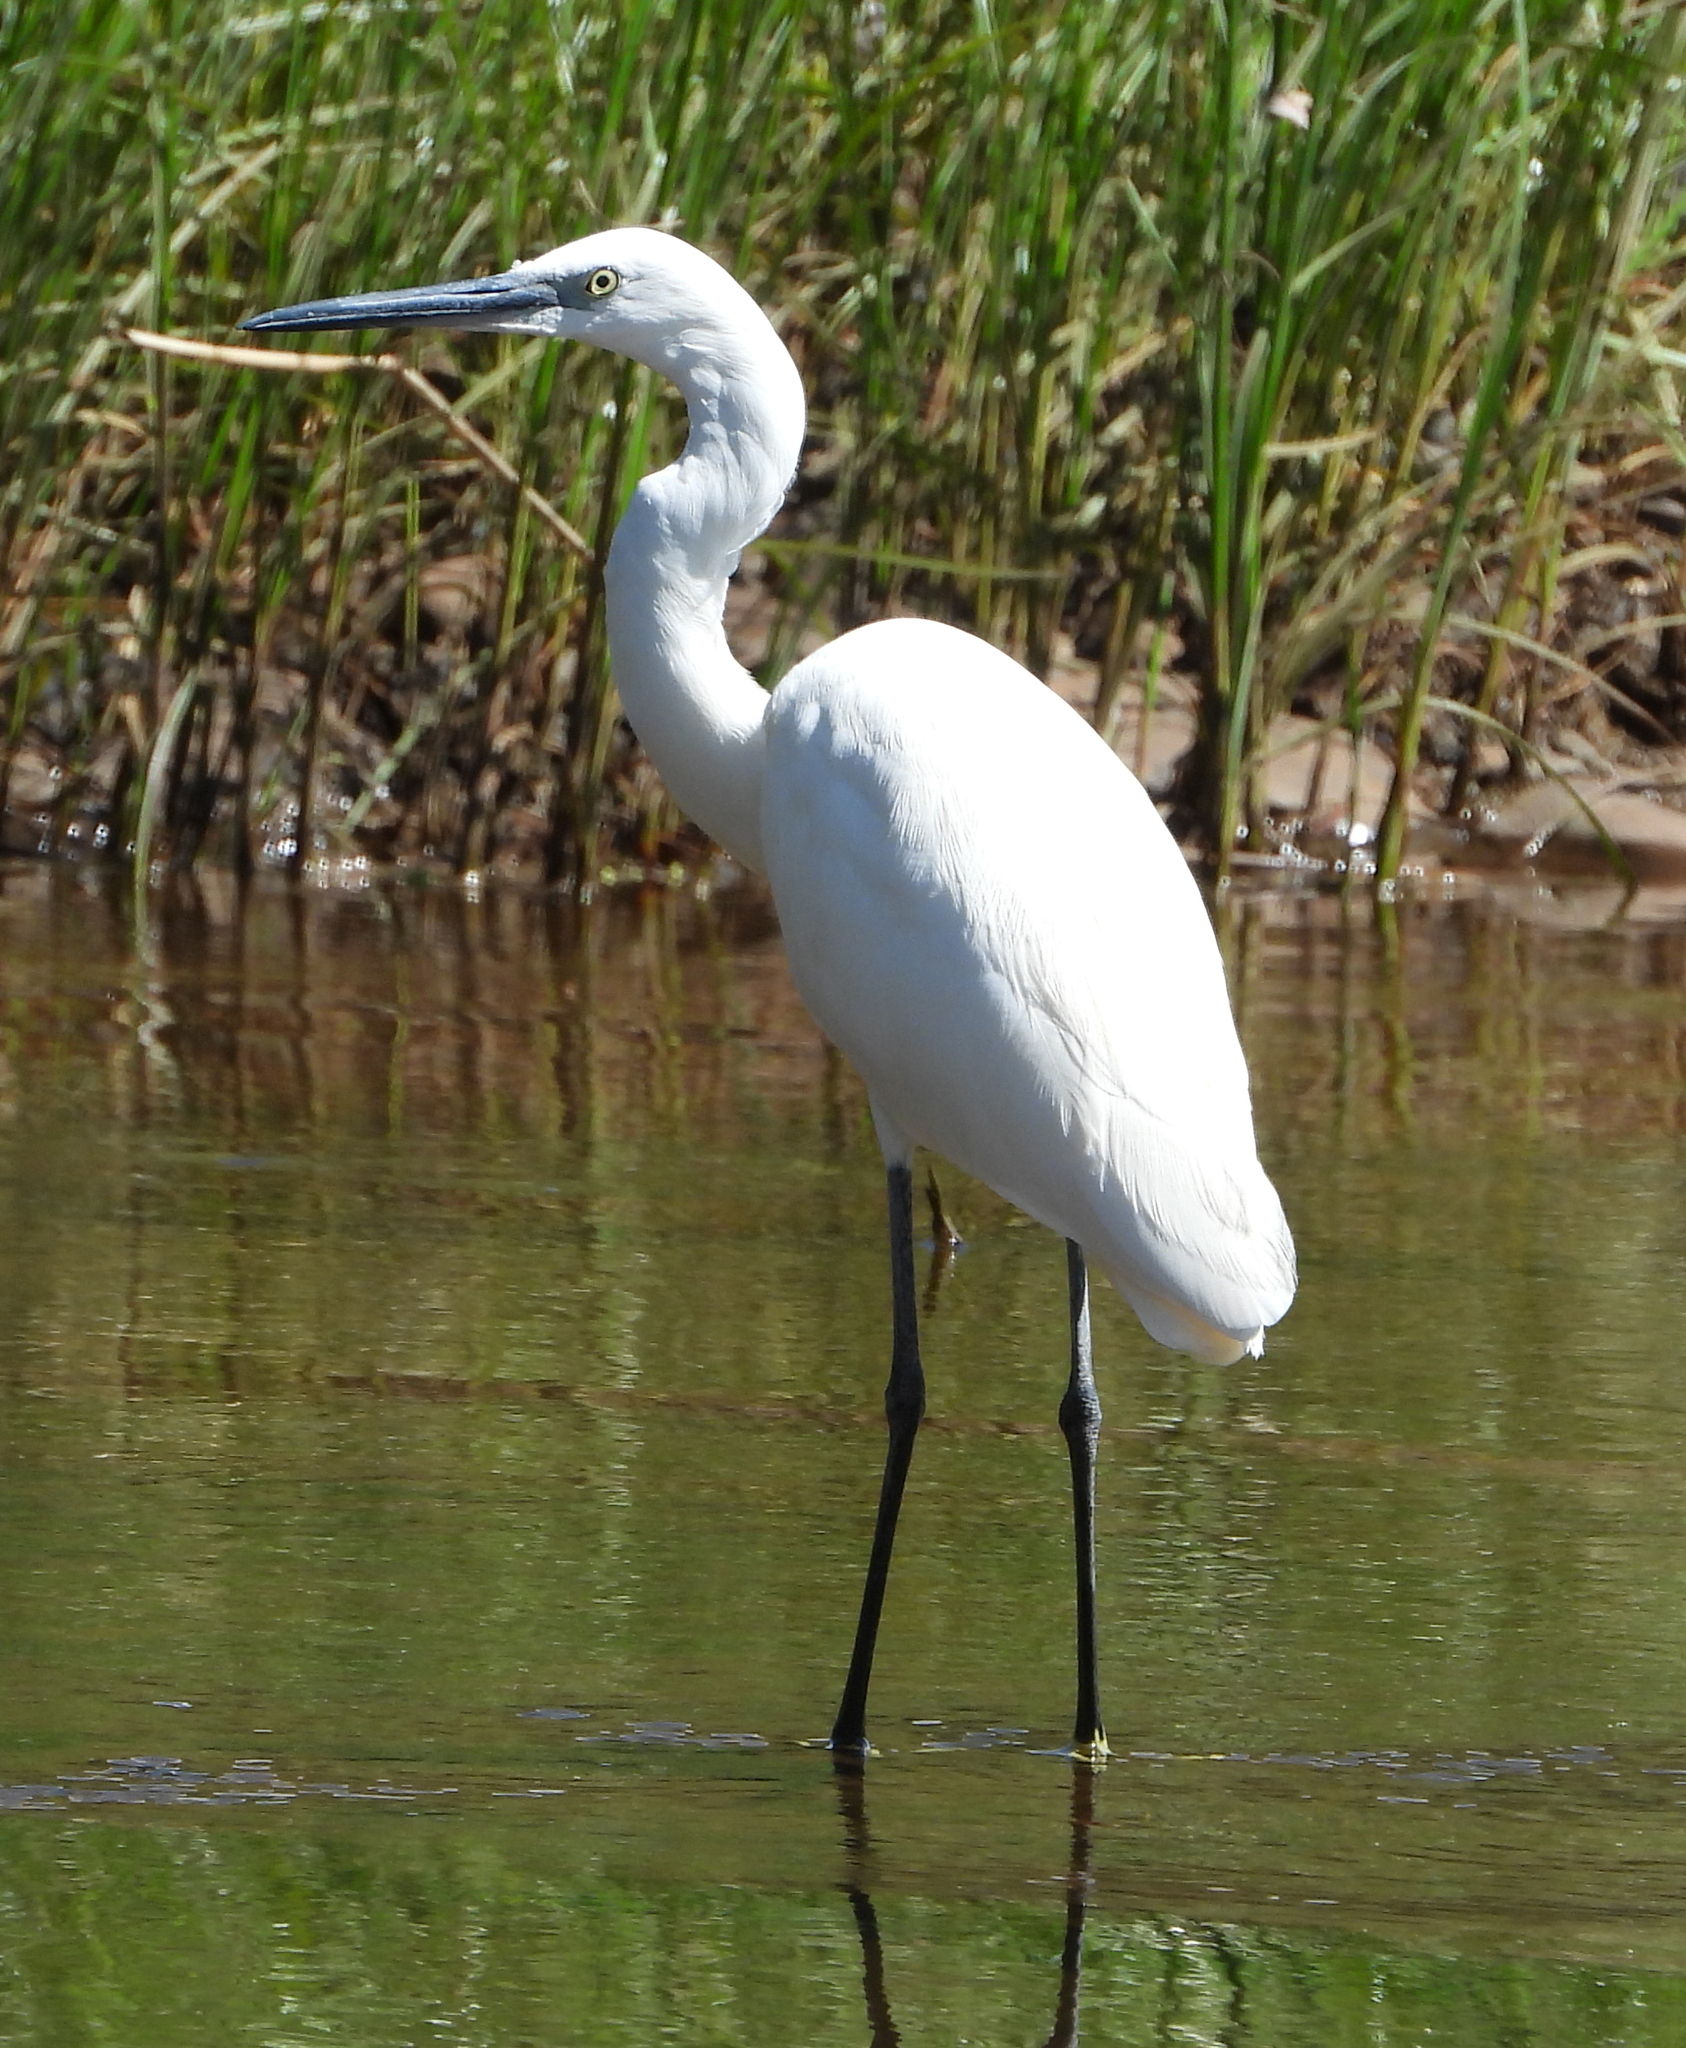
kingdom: Animalia
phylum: Chordata
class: Aves
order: Pelecaniformes
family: Ardeidae
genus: Egretta
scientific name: Egretta garzetta
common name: Little egret
